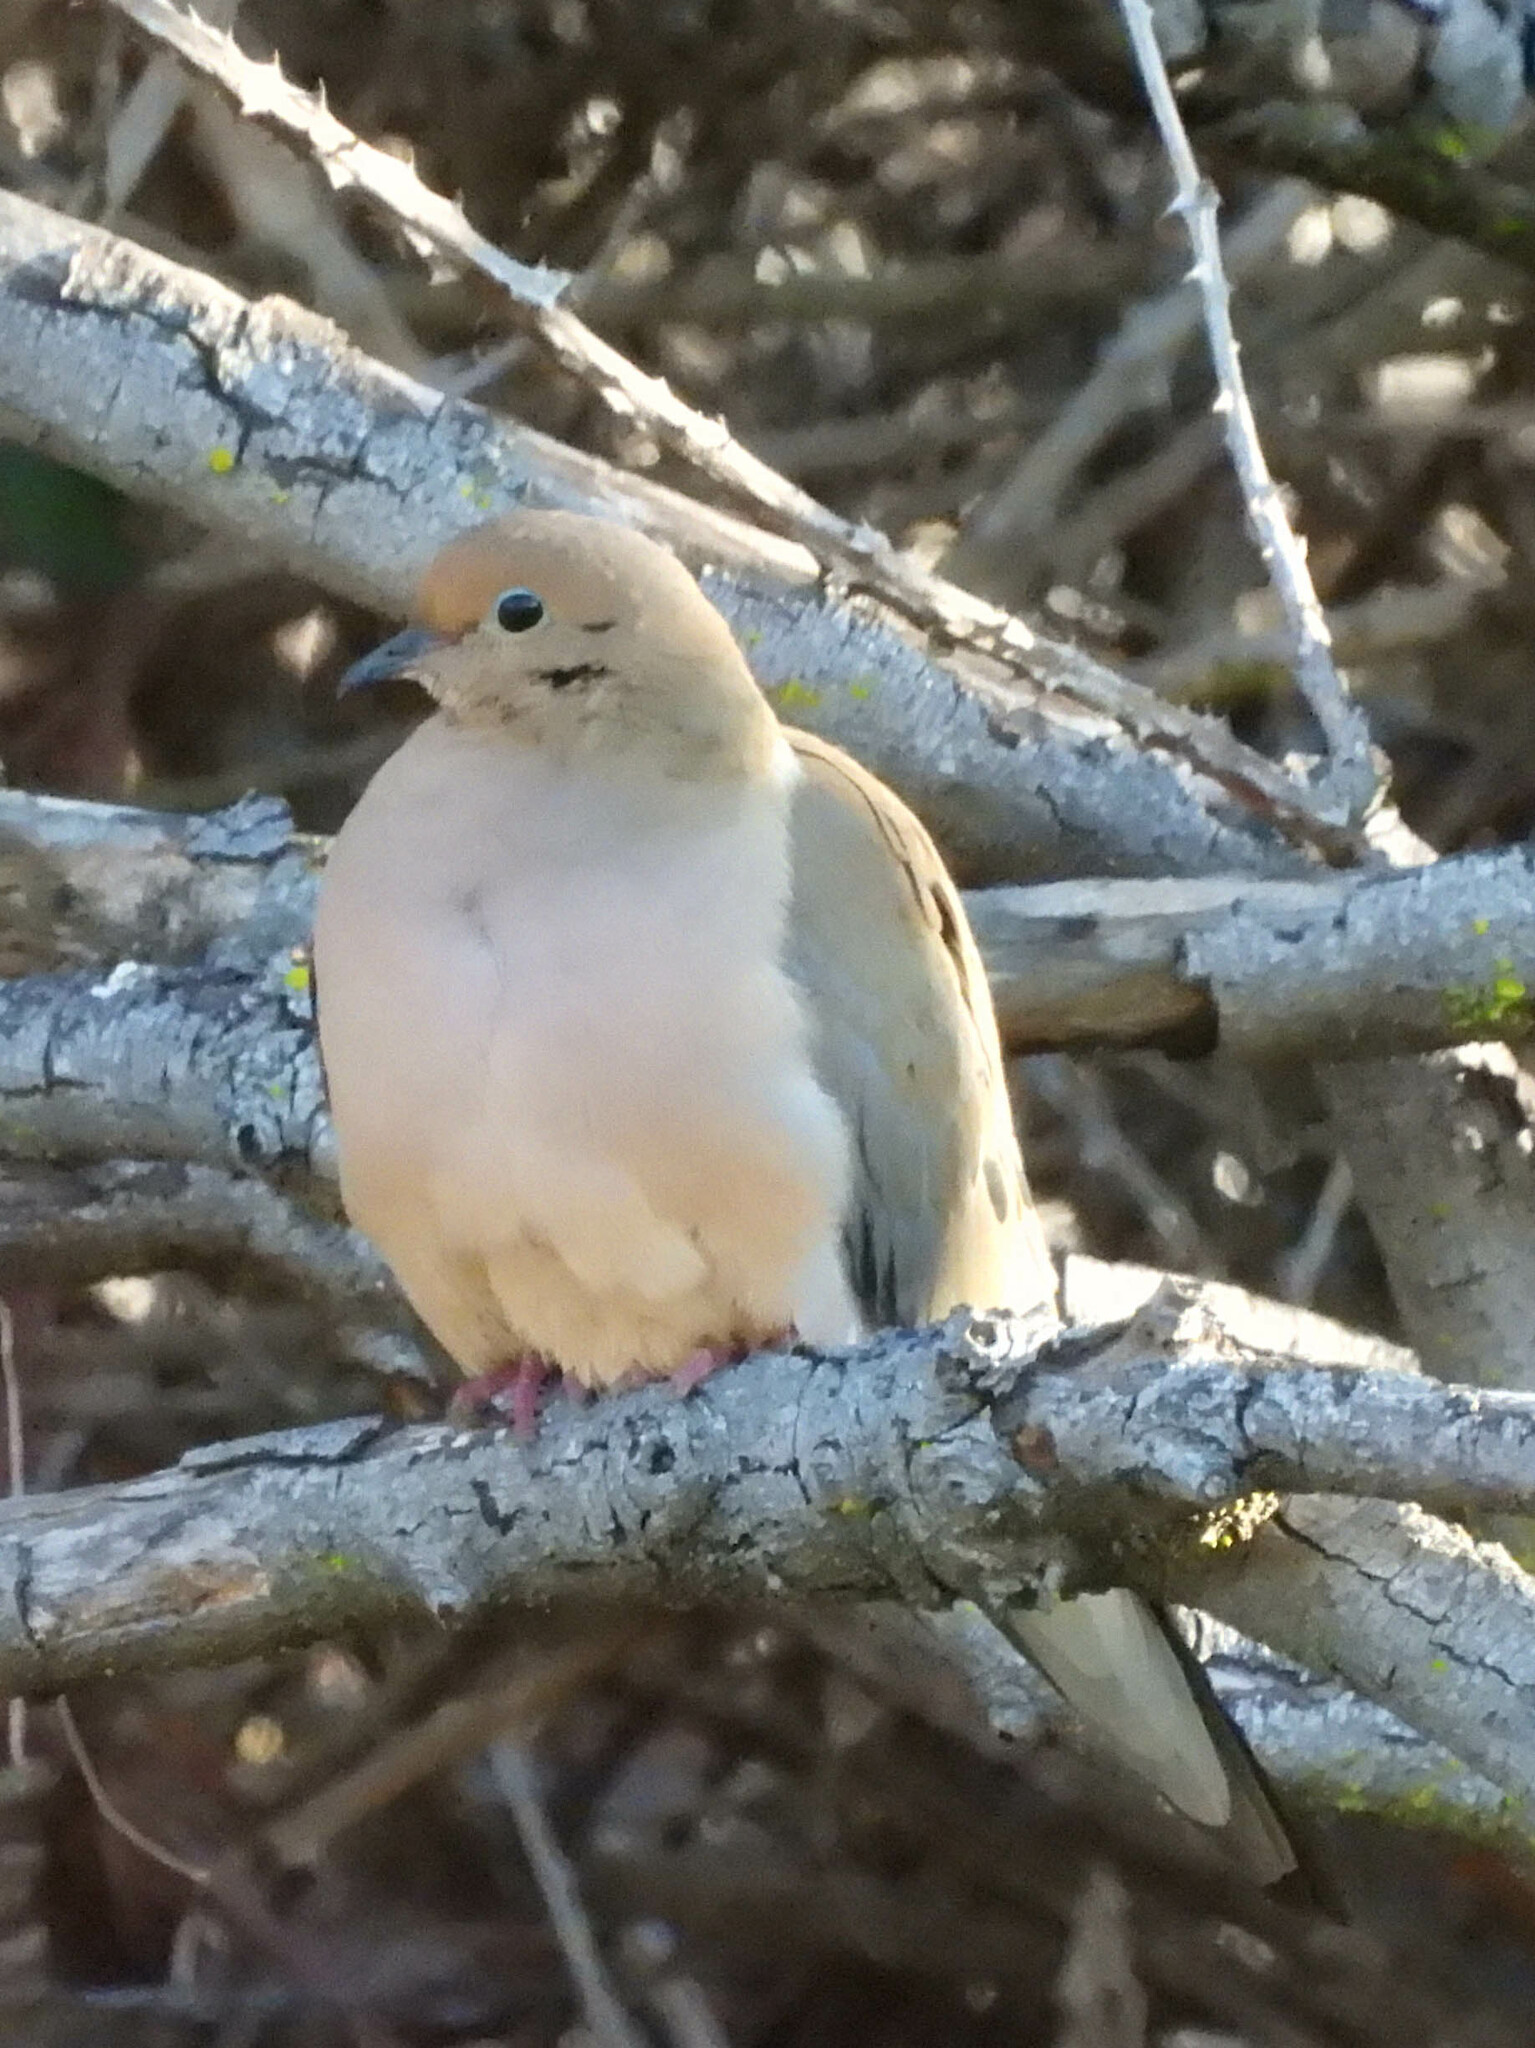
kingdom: Animalia
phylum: Chordata
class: Aves
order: Columbiformes
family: Columbidae
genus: Zenaida
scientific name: Zenaida macroura
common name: Mourning dove
